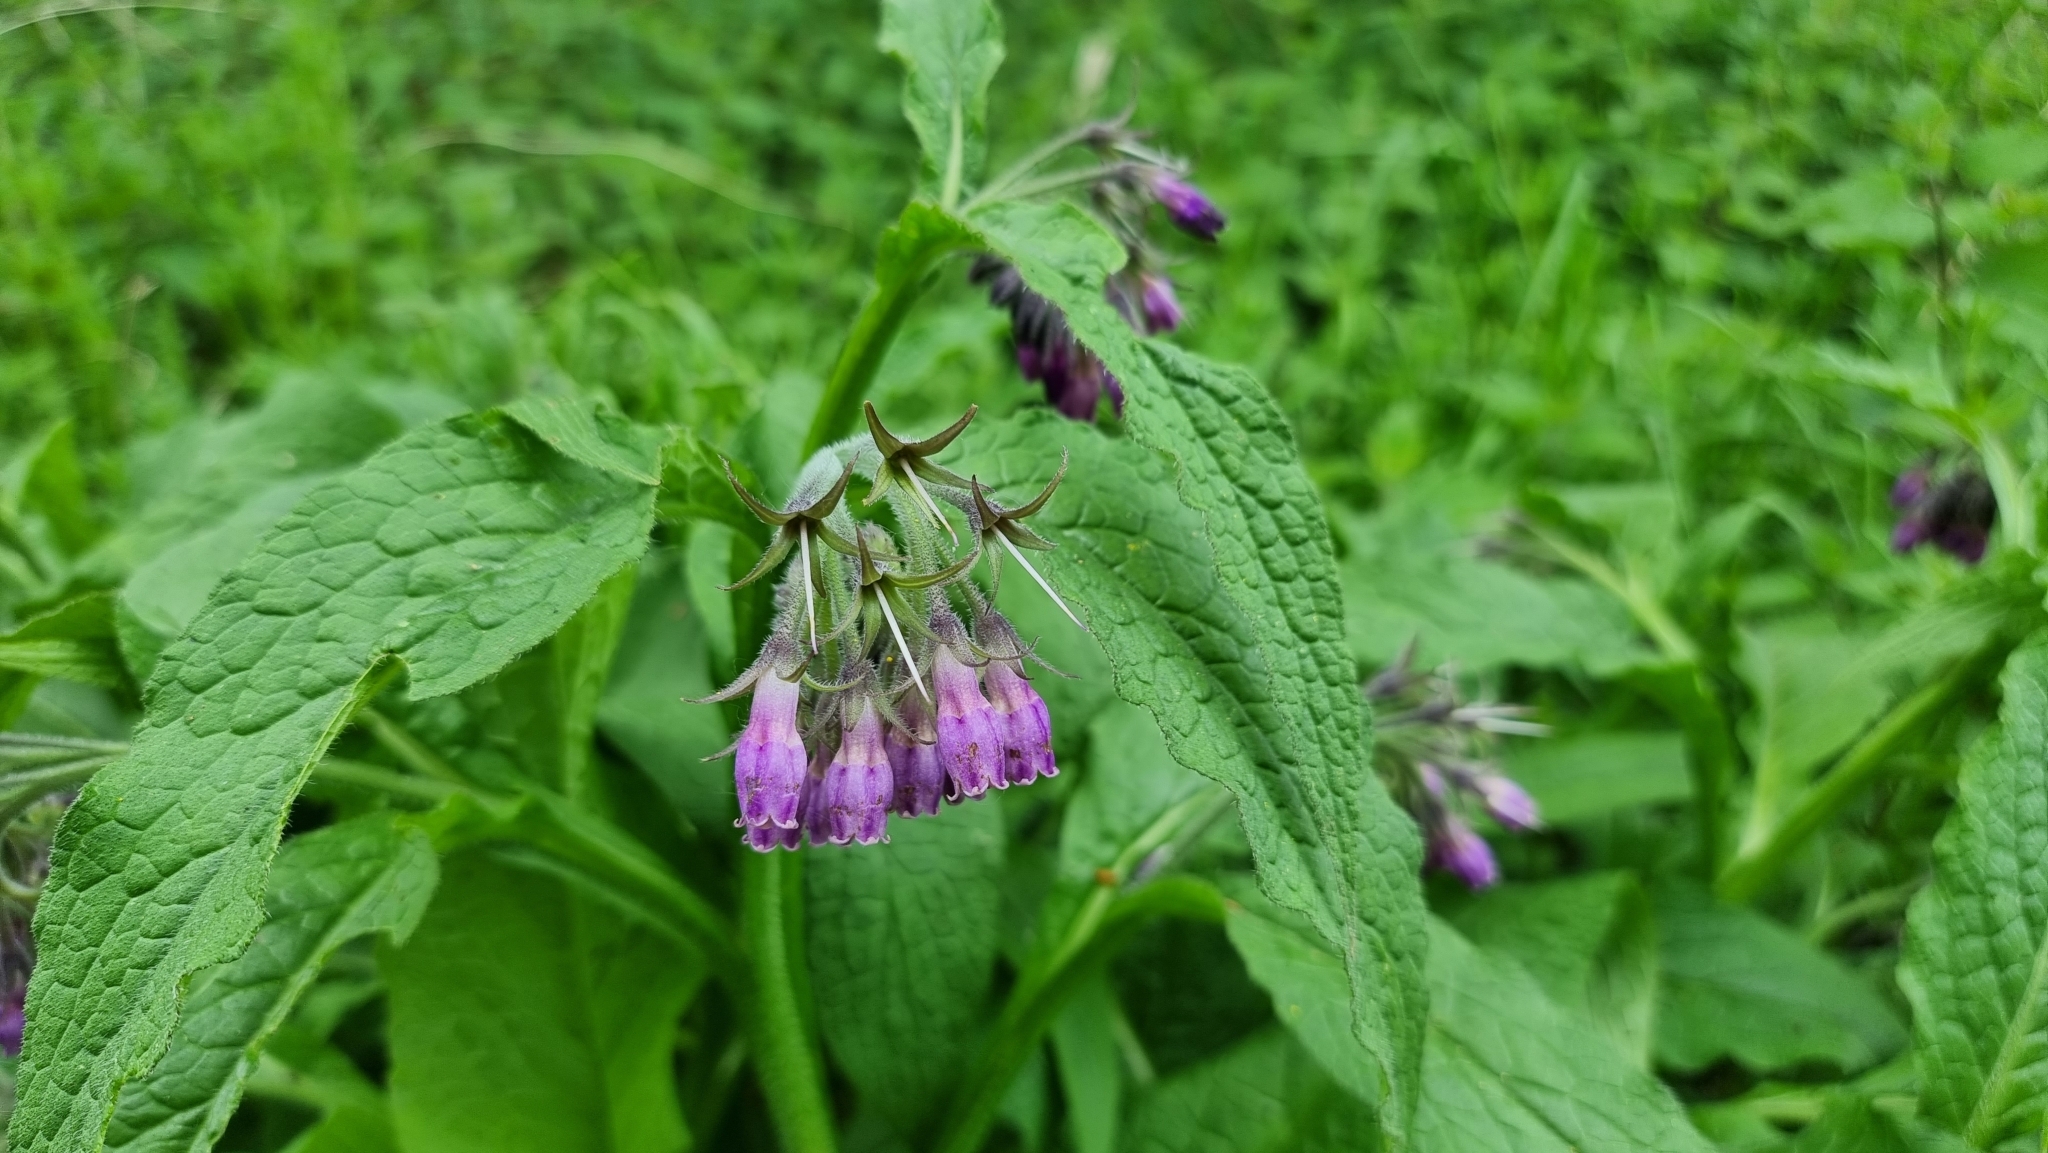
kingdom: Plantae
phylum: Tracheophyta
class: Magnoliopsida
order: Boraginales
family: Boraginaceae
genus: Symphytum
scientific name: Symphytum officinale
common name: Common comfrey
